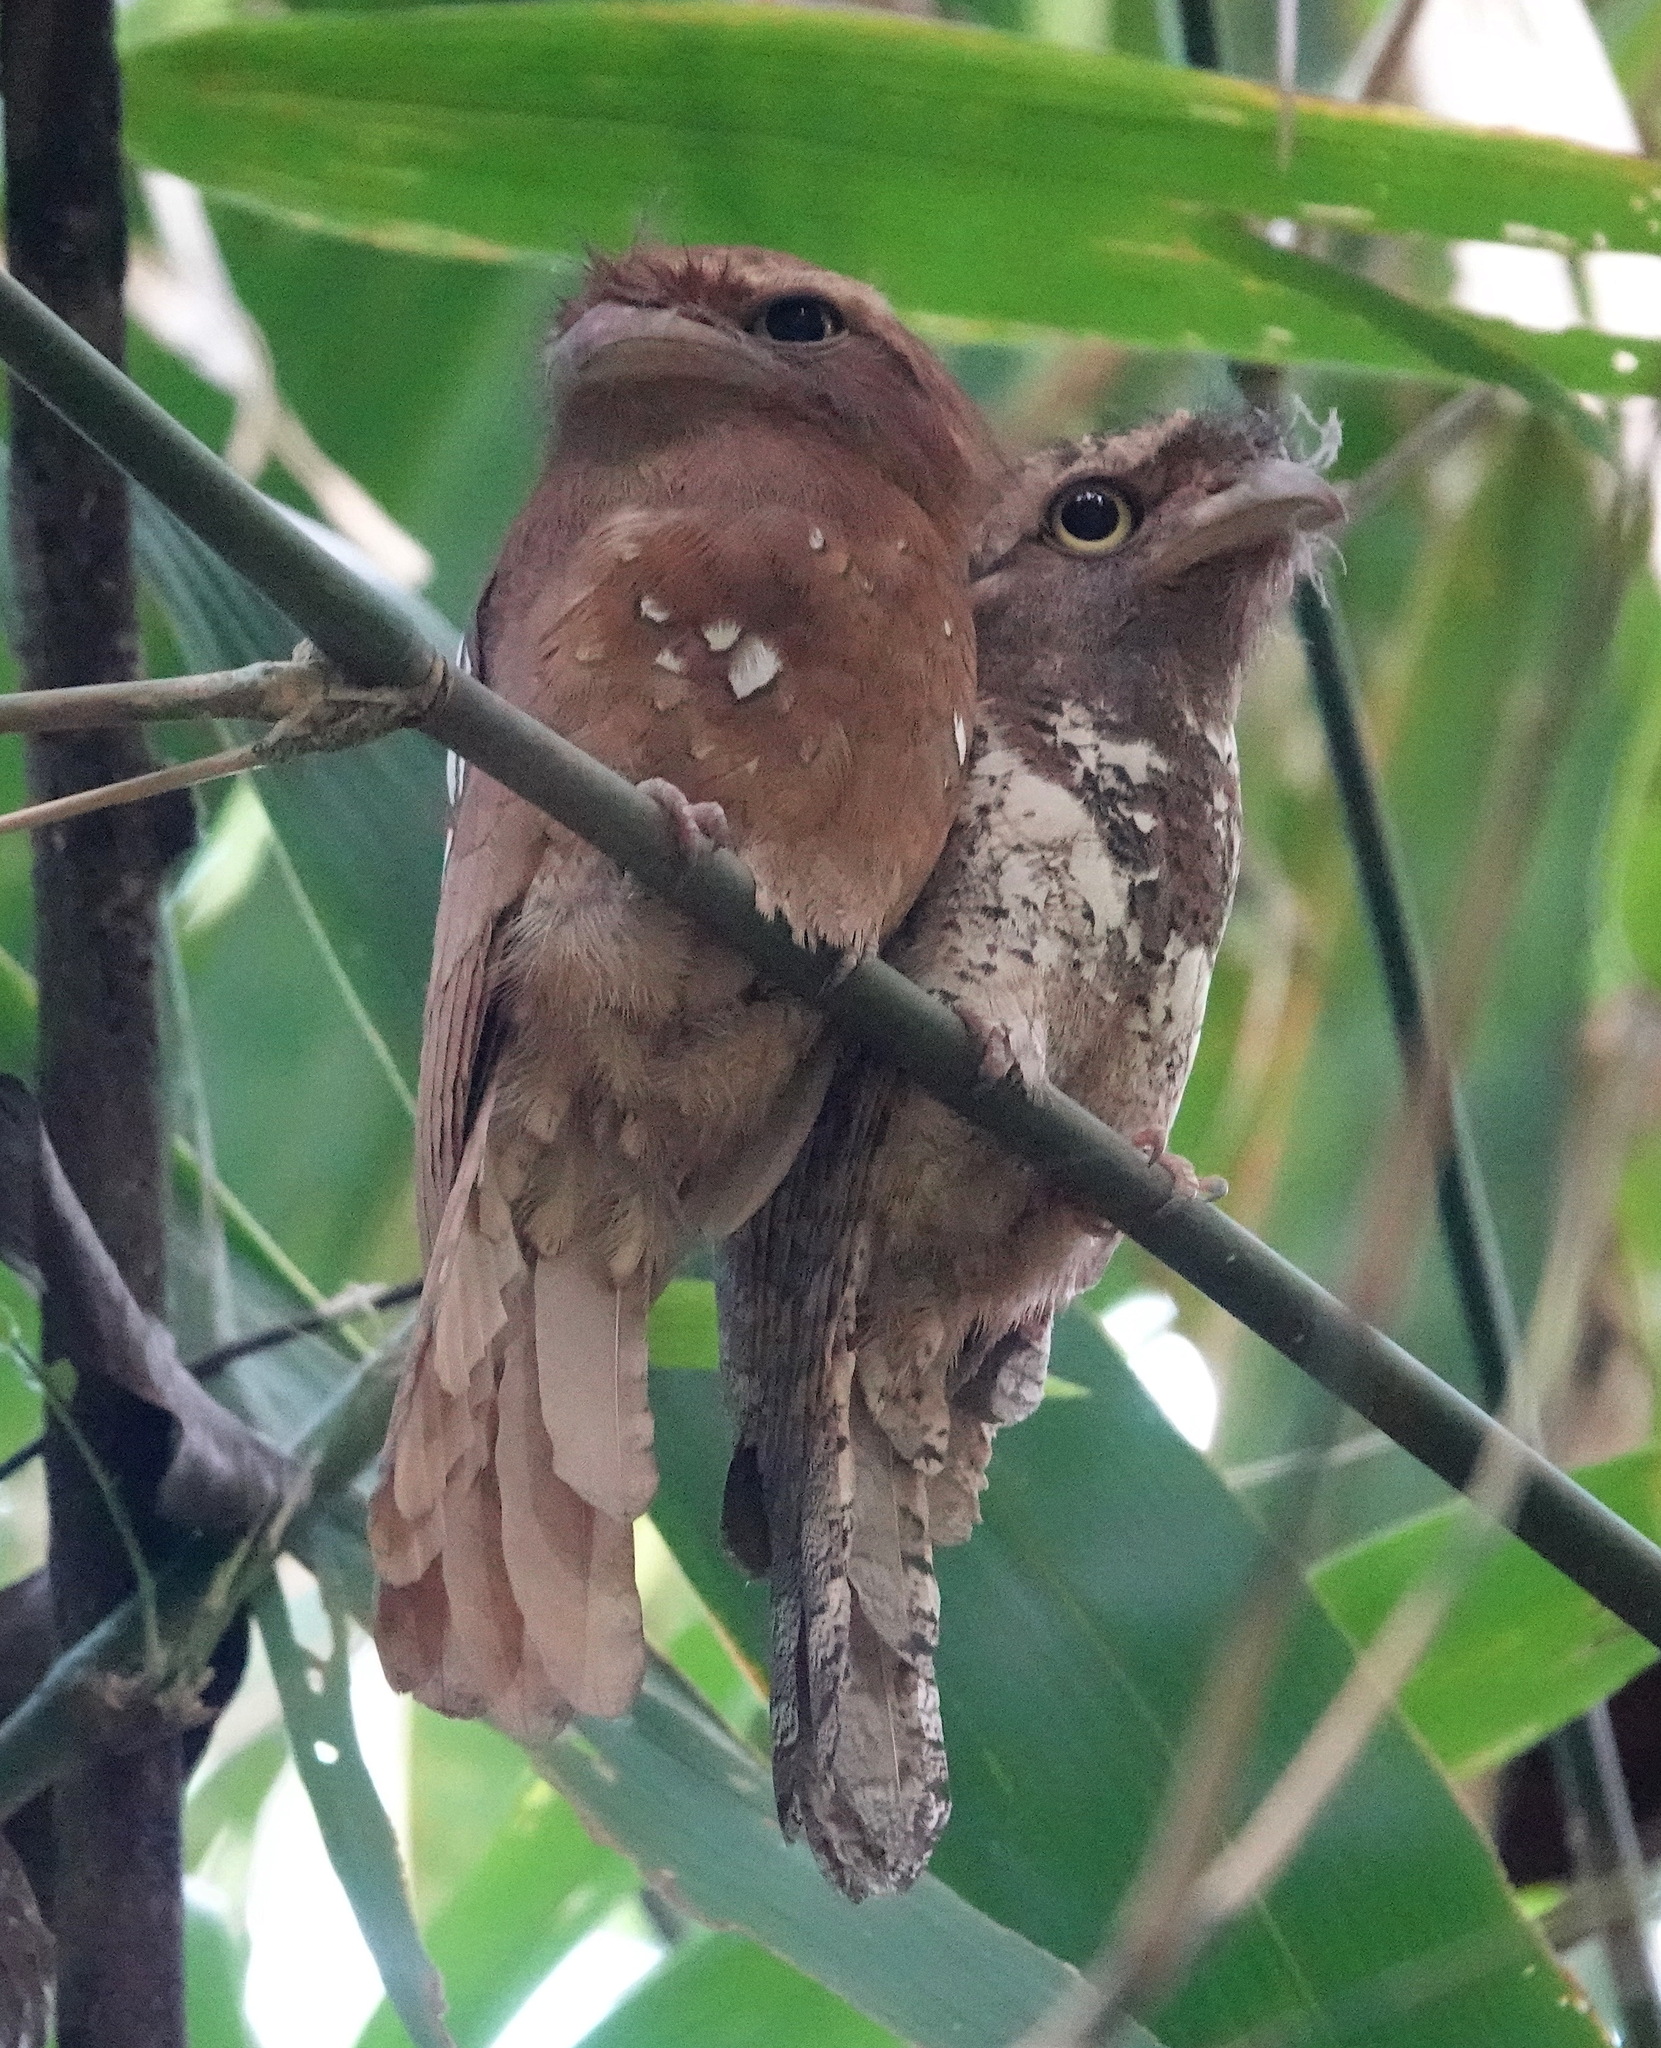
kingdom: Animalia
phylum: Chordata
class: Aves
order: Caprimulgiformes
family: Podargidae
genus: Batrachostomus
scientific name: Batrachostomus javensis
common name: Javan frogmouth
